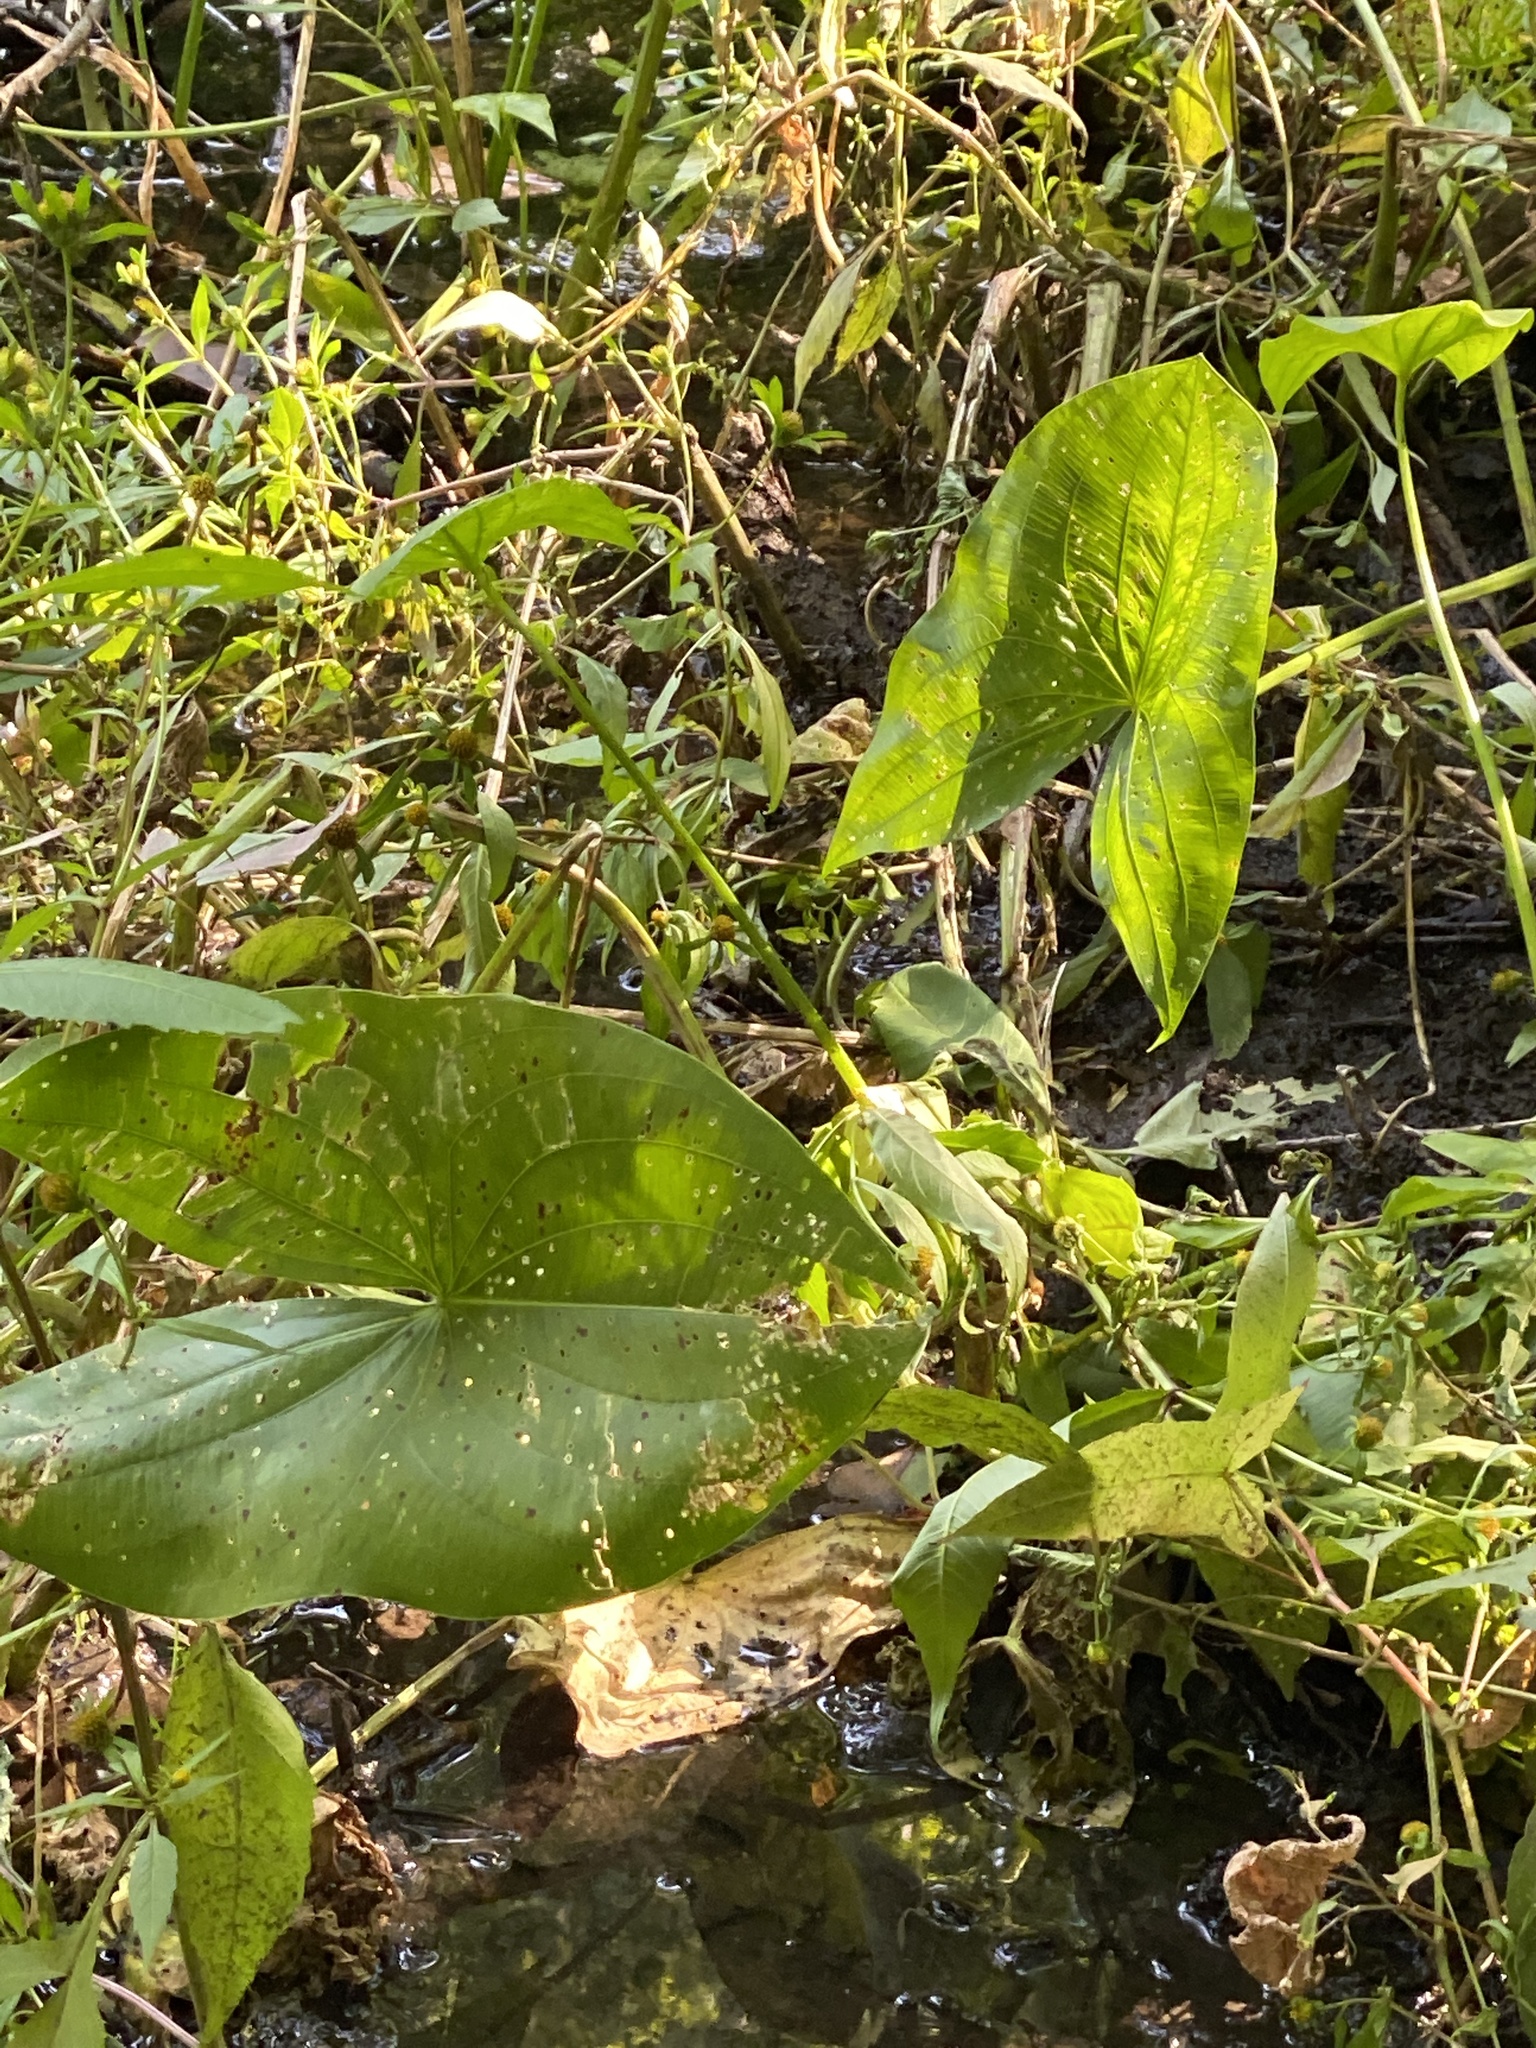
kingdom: Plantae
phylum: Tracheophyta
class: Liliopsida
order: Alismatales
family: Alismataceae
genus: Sagittaria
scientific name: Sagittaria latifolia
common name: Duck-potato
